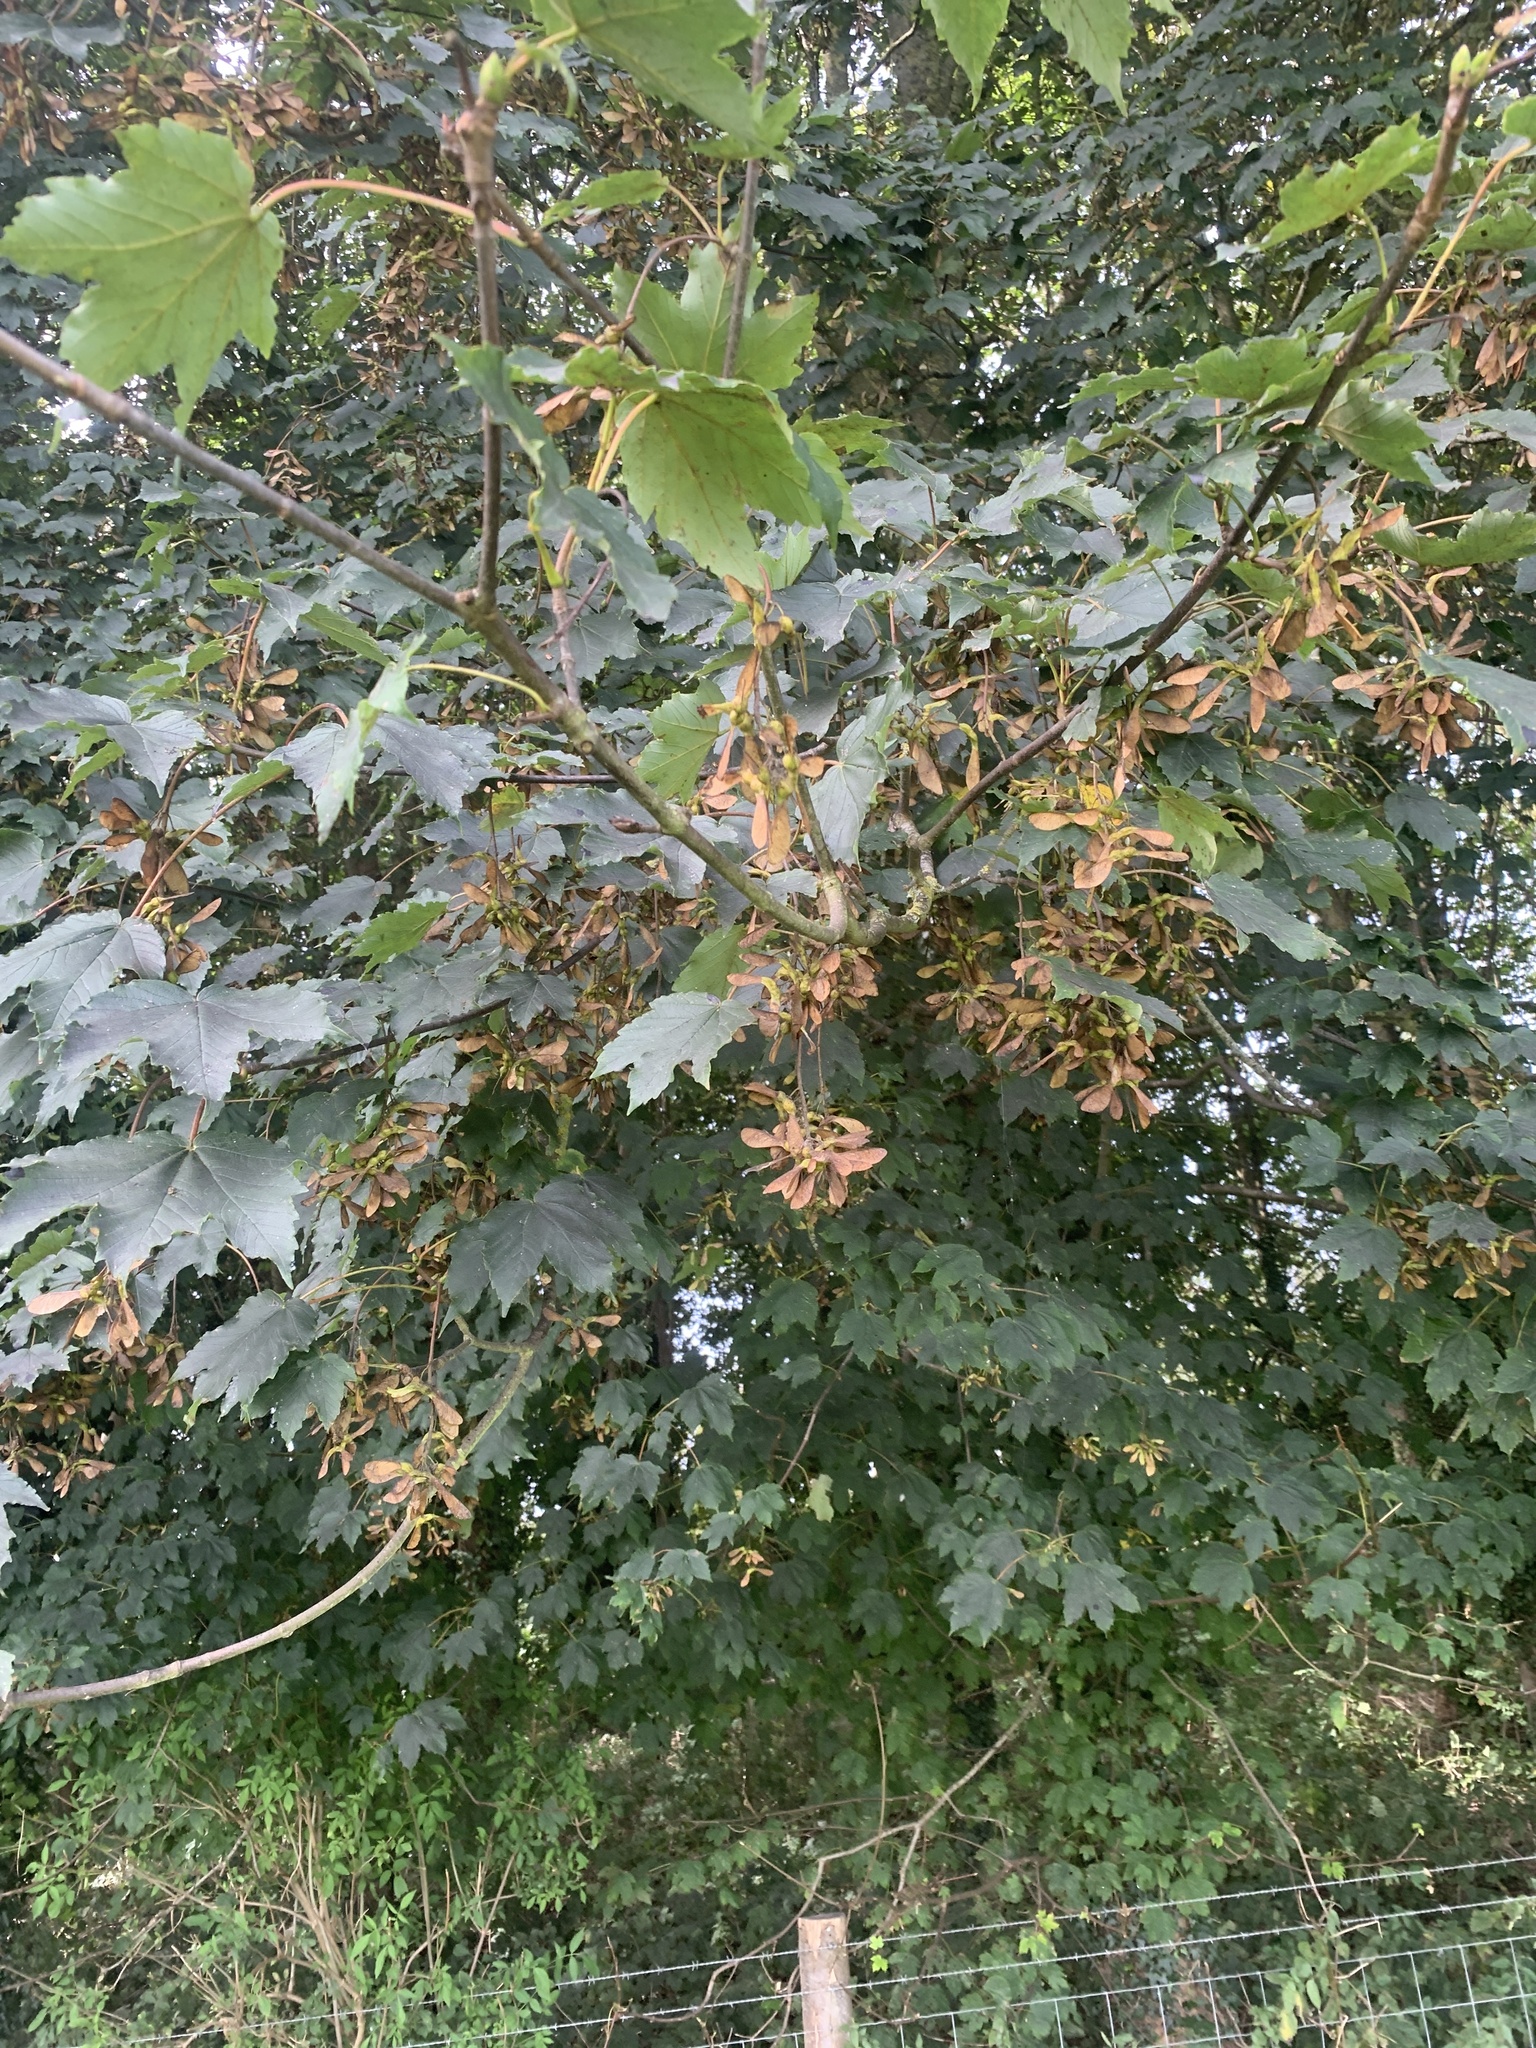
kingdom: Plantae
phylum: Tracheophyta
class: Magnoliopsida
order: Sapindales
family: Sapindaceae
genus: Acer
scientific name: Acer pseudoplatanus
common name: Sycamore
